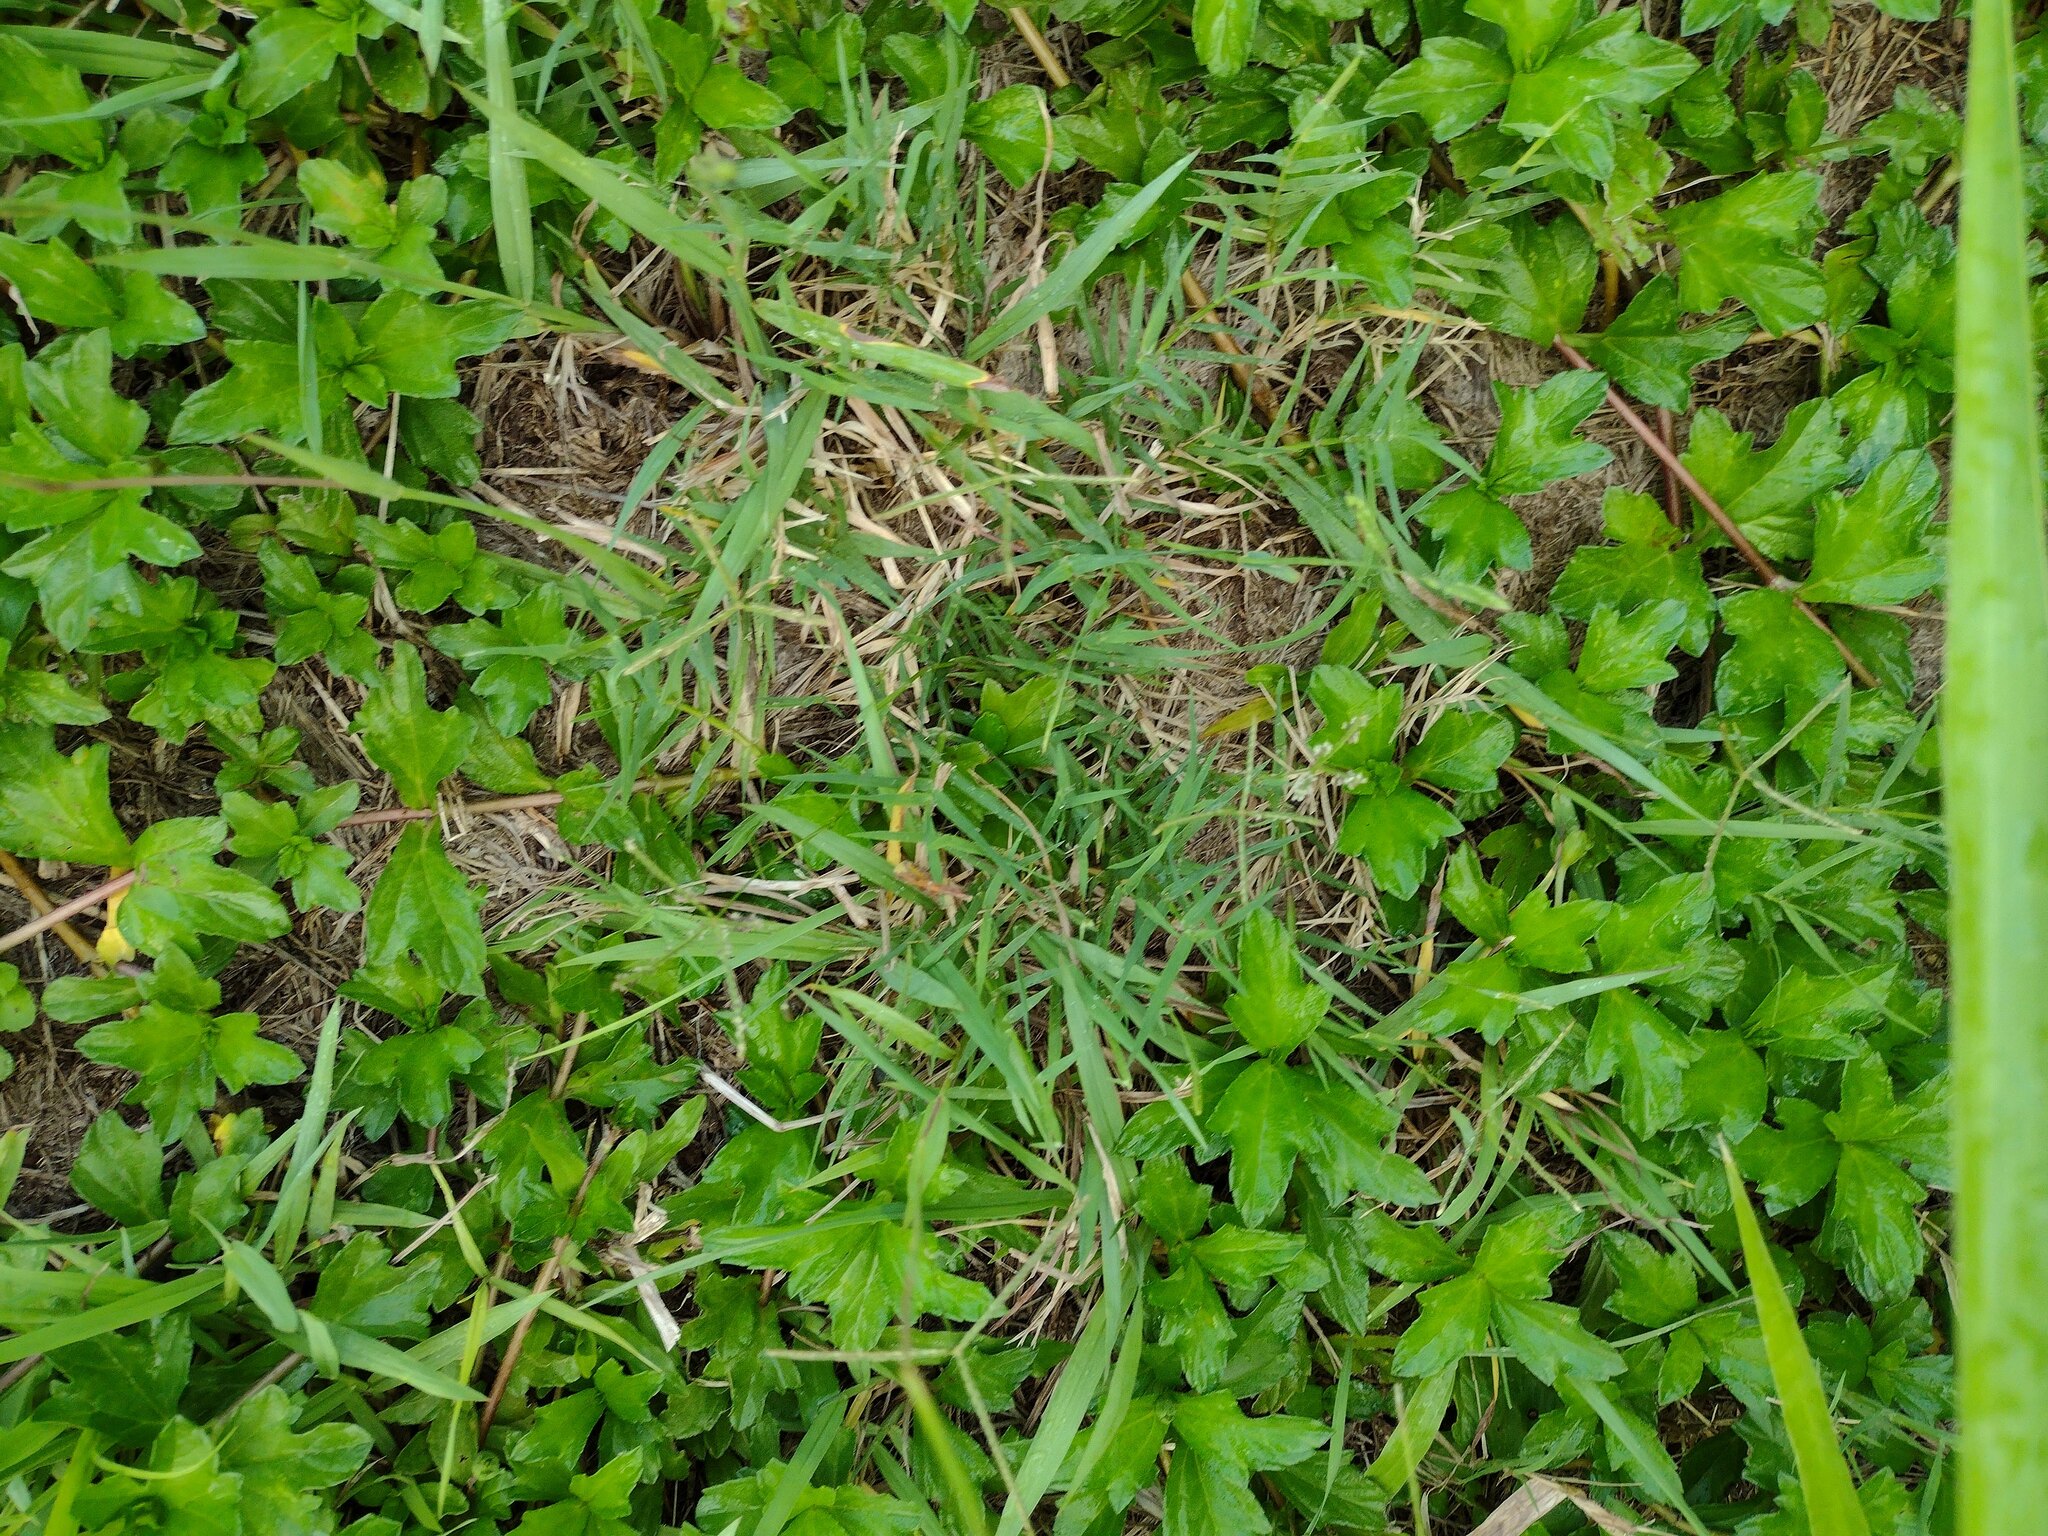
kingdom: Plantae
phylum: Tracheophyta
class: Liliopsida
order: Poales
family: Poaceae
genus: Cynodon
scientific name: Cynodon dactylon
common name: Bermuda grass
